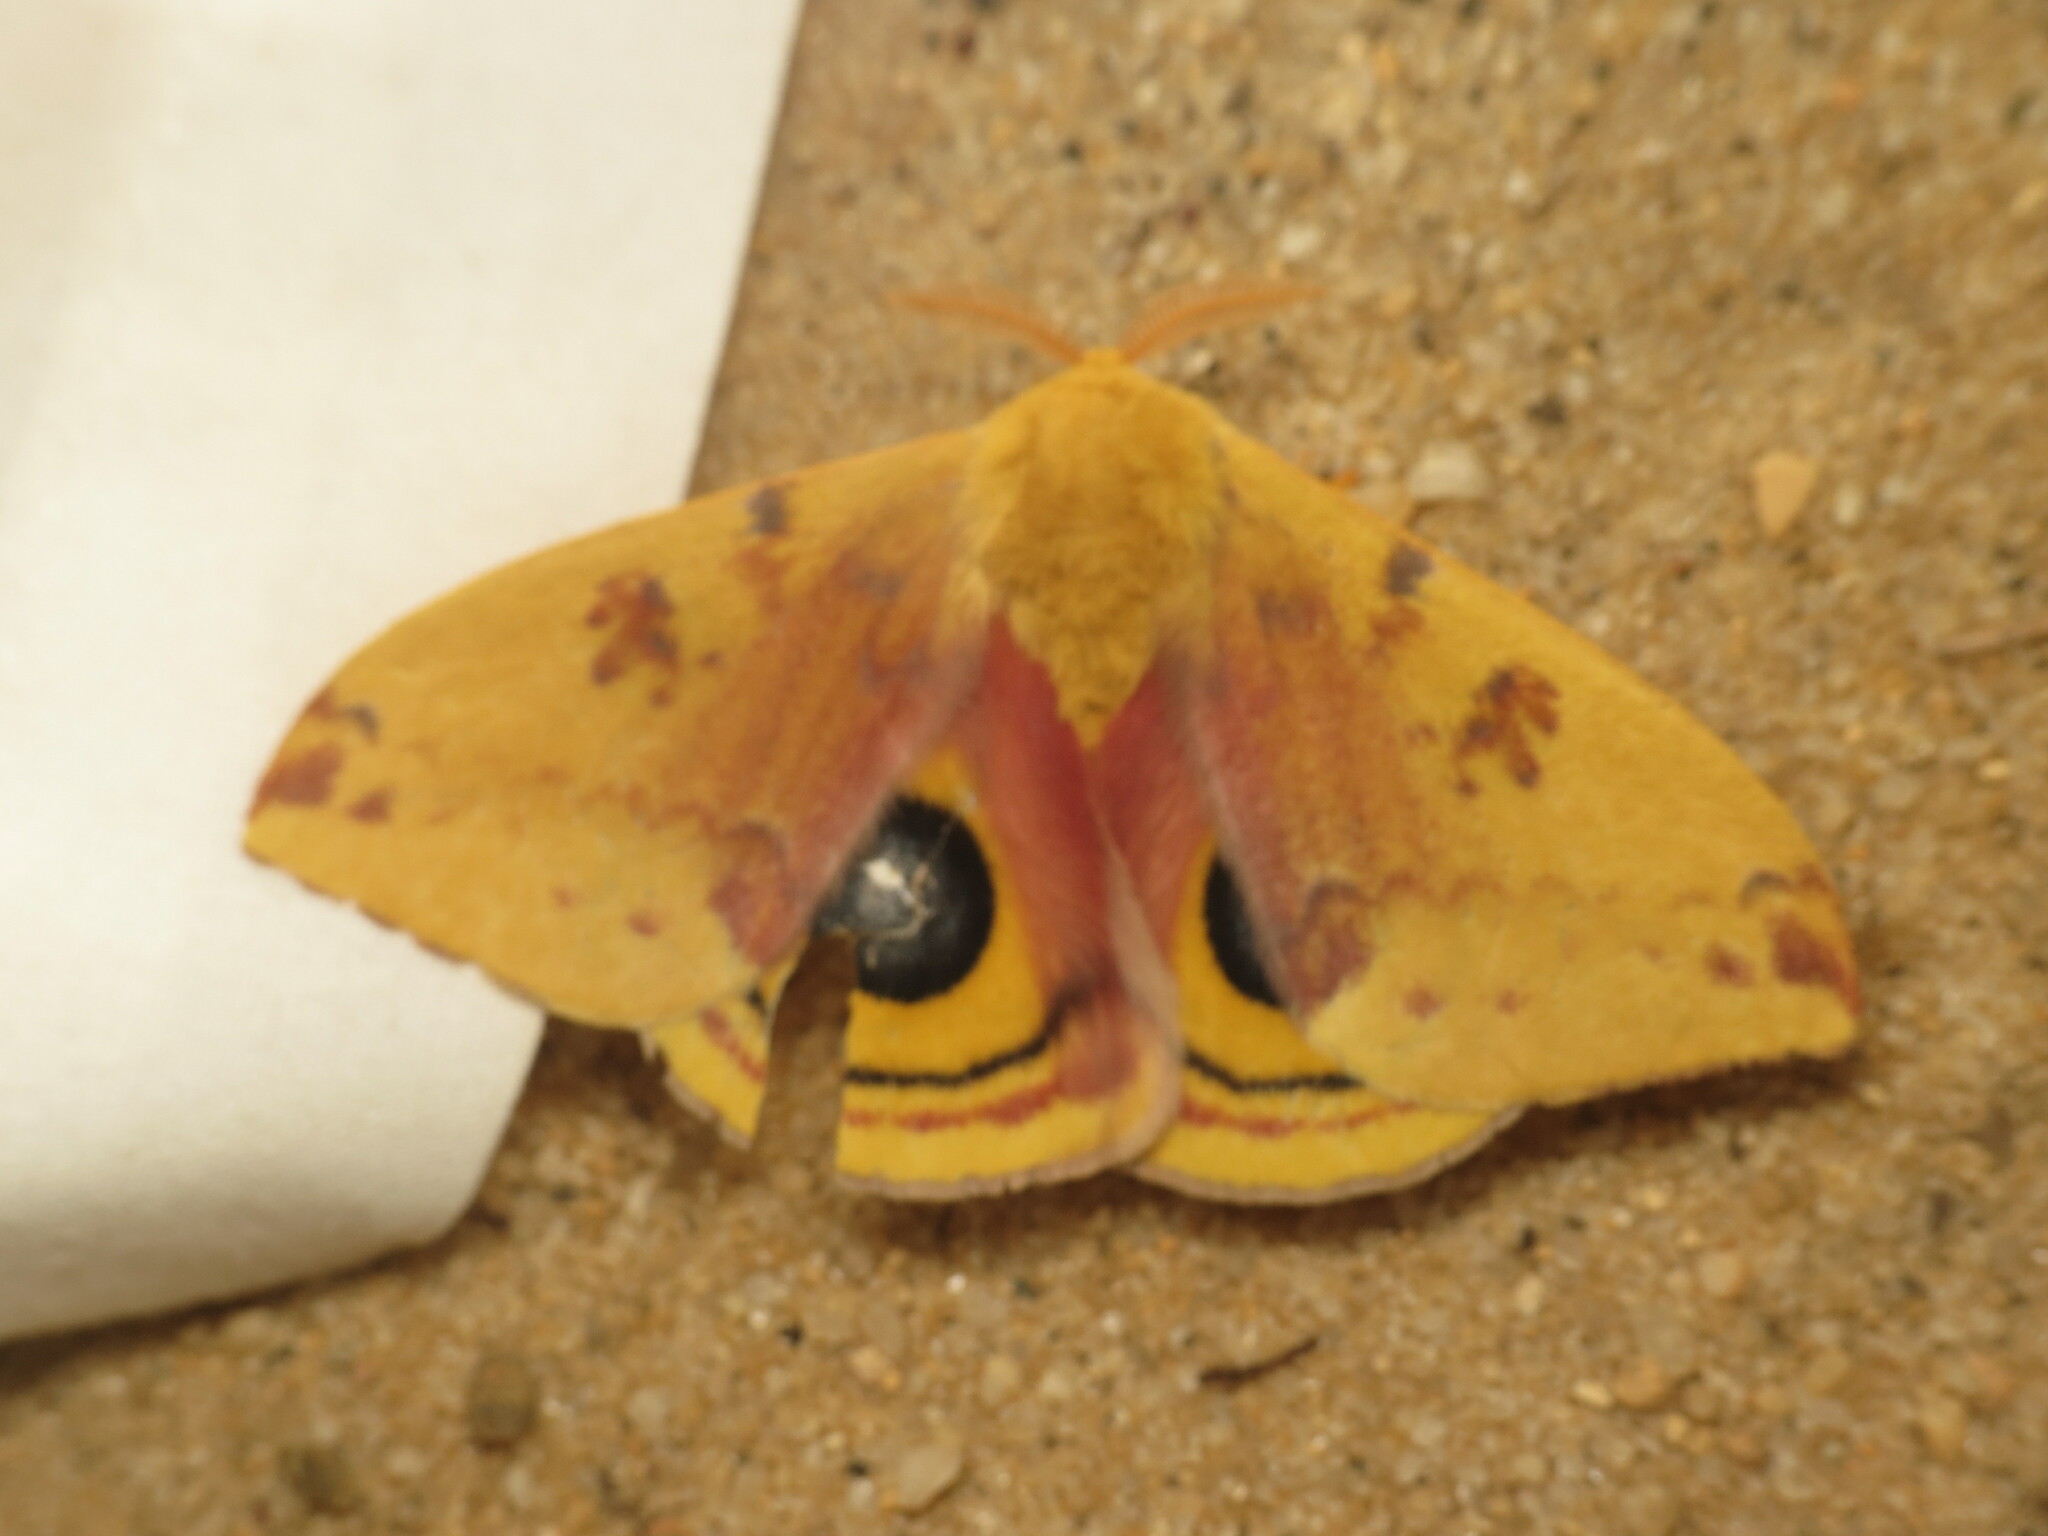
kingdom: Animalia
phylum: Arthropoda
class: Insecta
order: Lepidoptera
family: Saturniidae
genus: Automeris
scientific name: Automeris io
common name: Io moth
